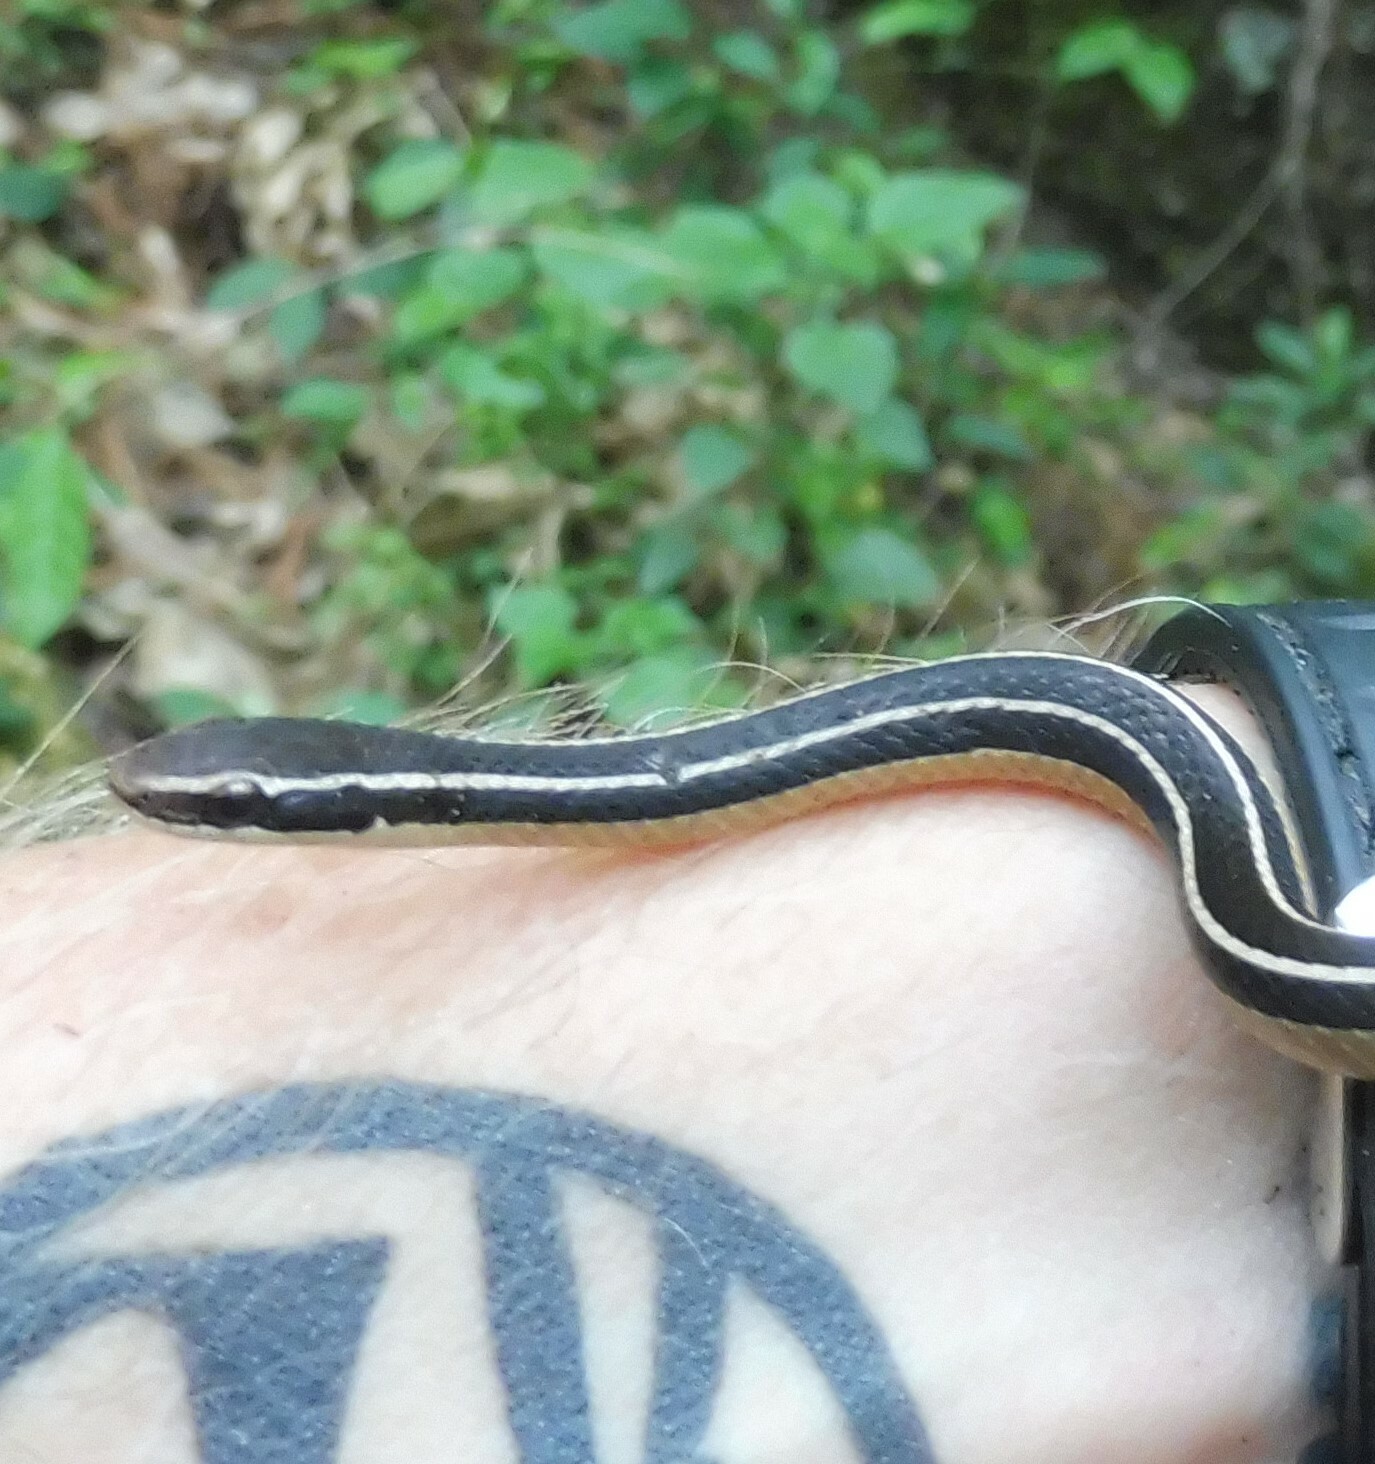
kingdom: Animalia
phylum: Chordata
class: Squamata
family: Colubridae
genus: Rhadinaea
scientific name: Rhadinaea taeniata
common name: Pine-oak snake
